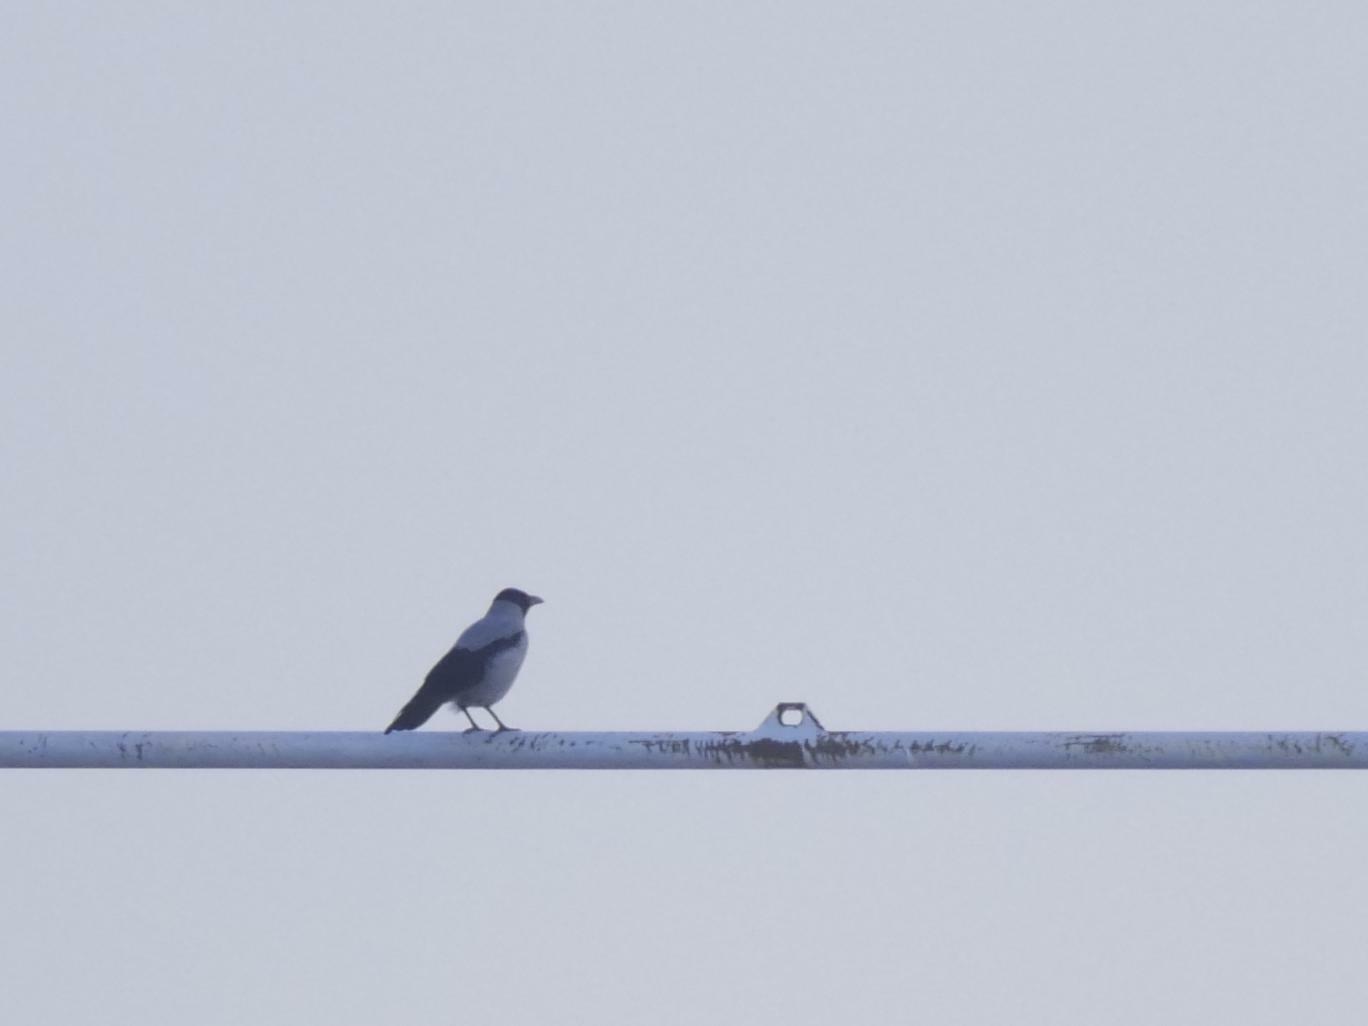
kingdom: Animalia
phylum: Chordata
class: Aves
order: Passeriformes
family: Corvidae
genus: Corvus
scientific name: Corvus cornix
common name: Hooded crow
